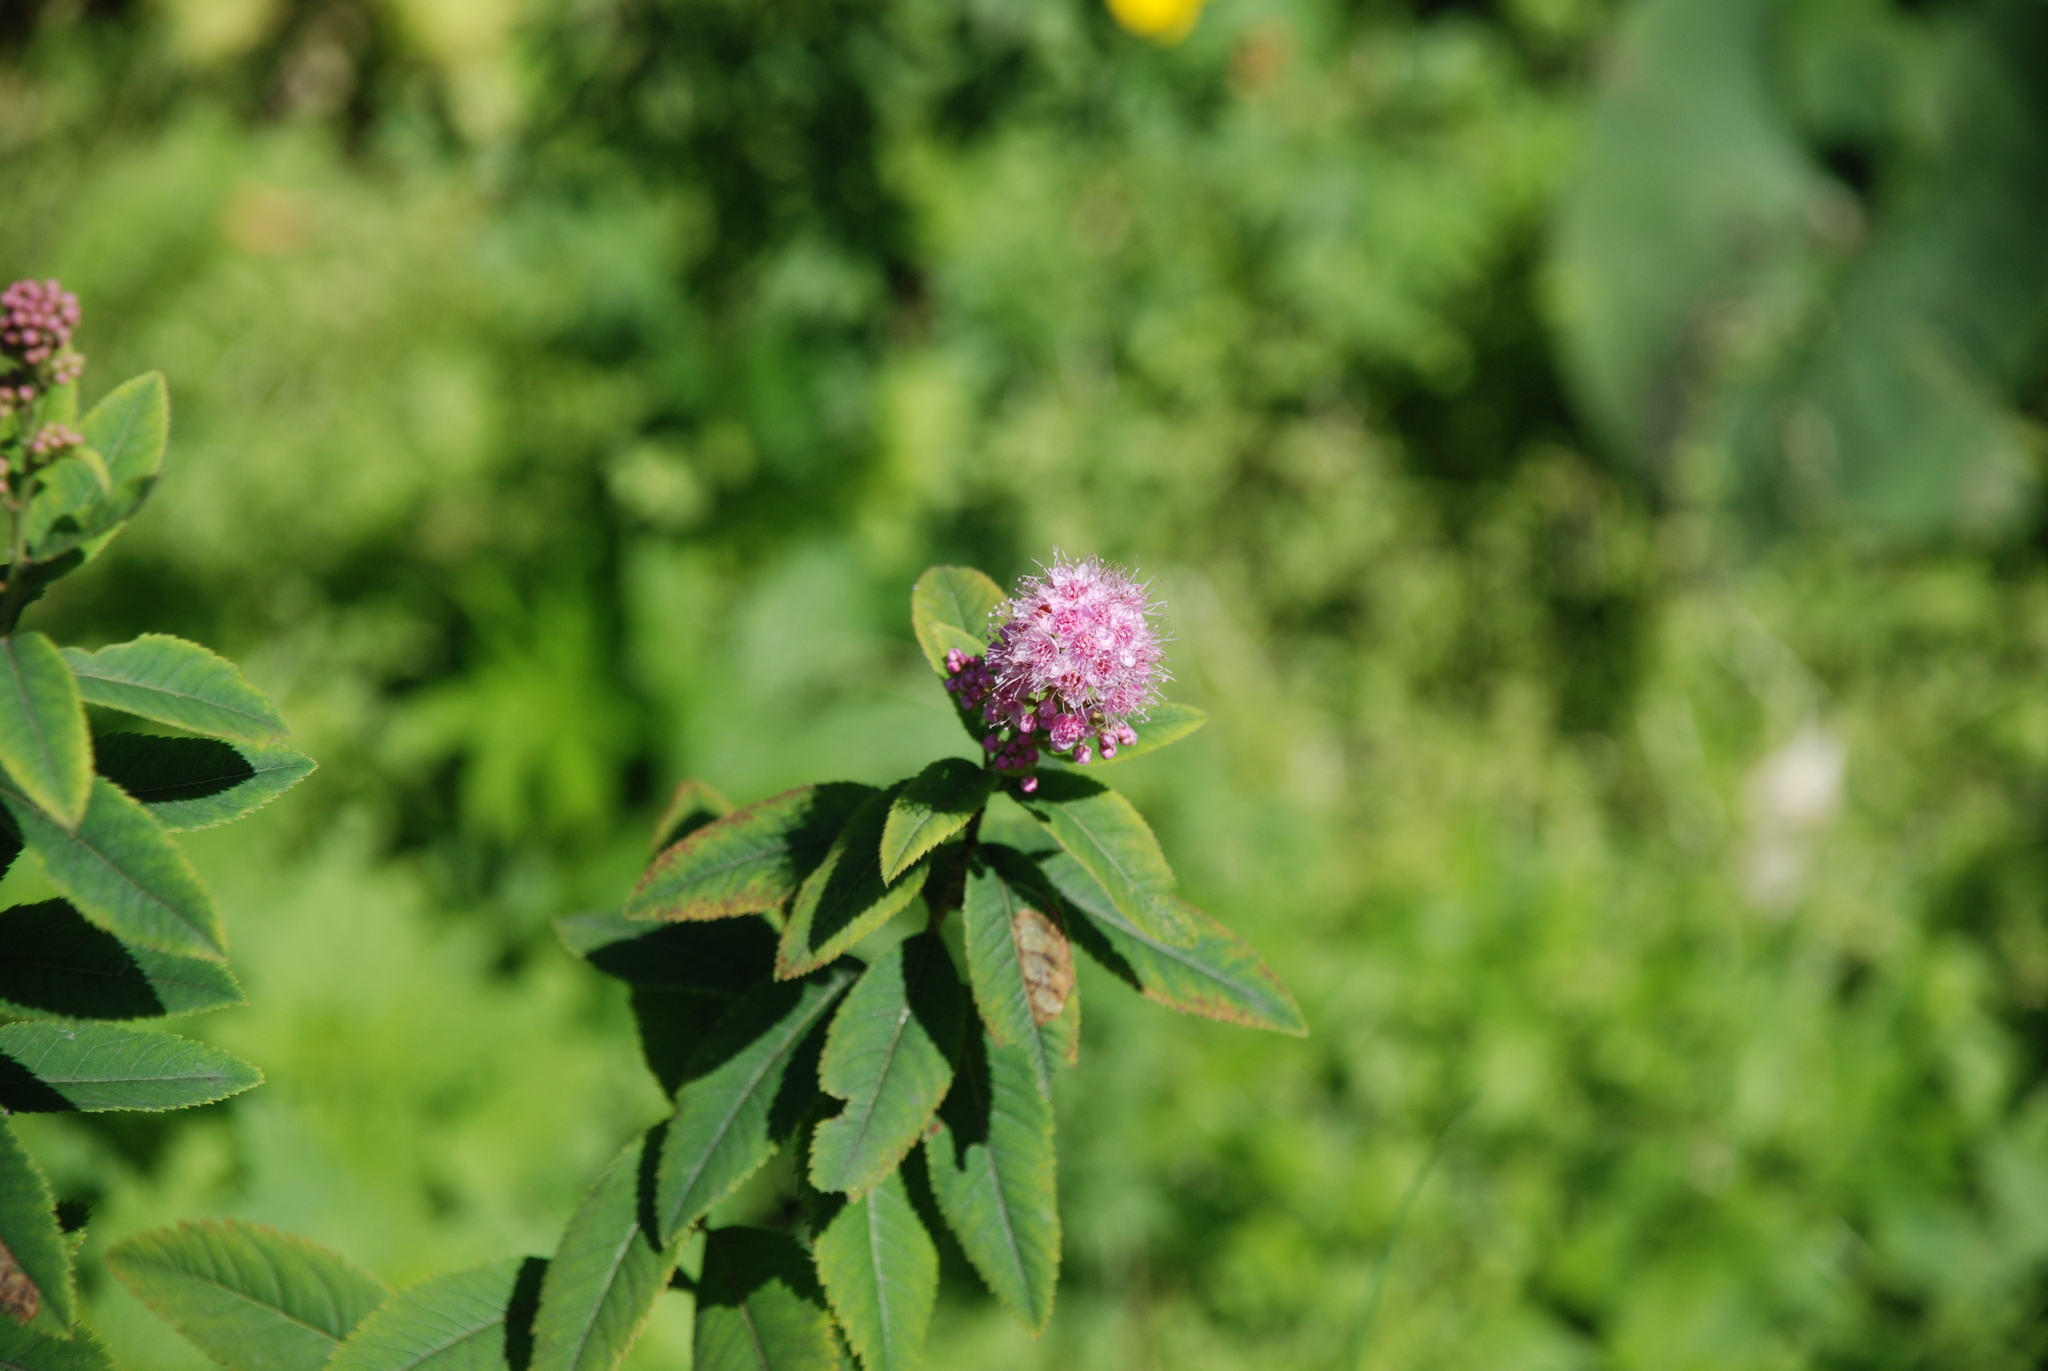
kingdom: Plantae
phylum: Tracheophyta
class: Magnoliopsida
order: Rosales
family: Rosaceae
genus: Spiraea
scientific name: Spiraea salicifolia
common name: Bridewort
